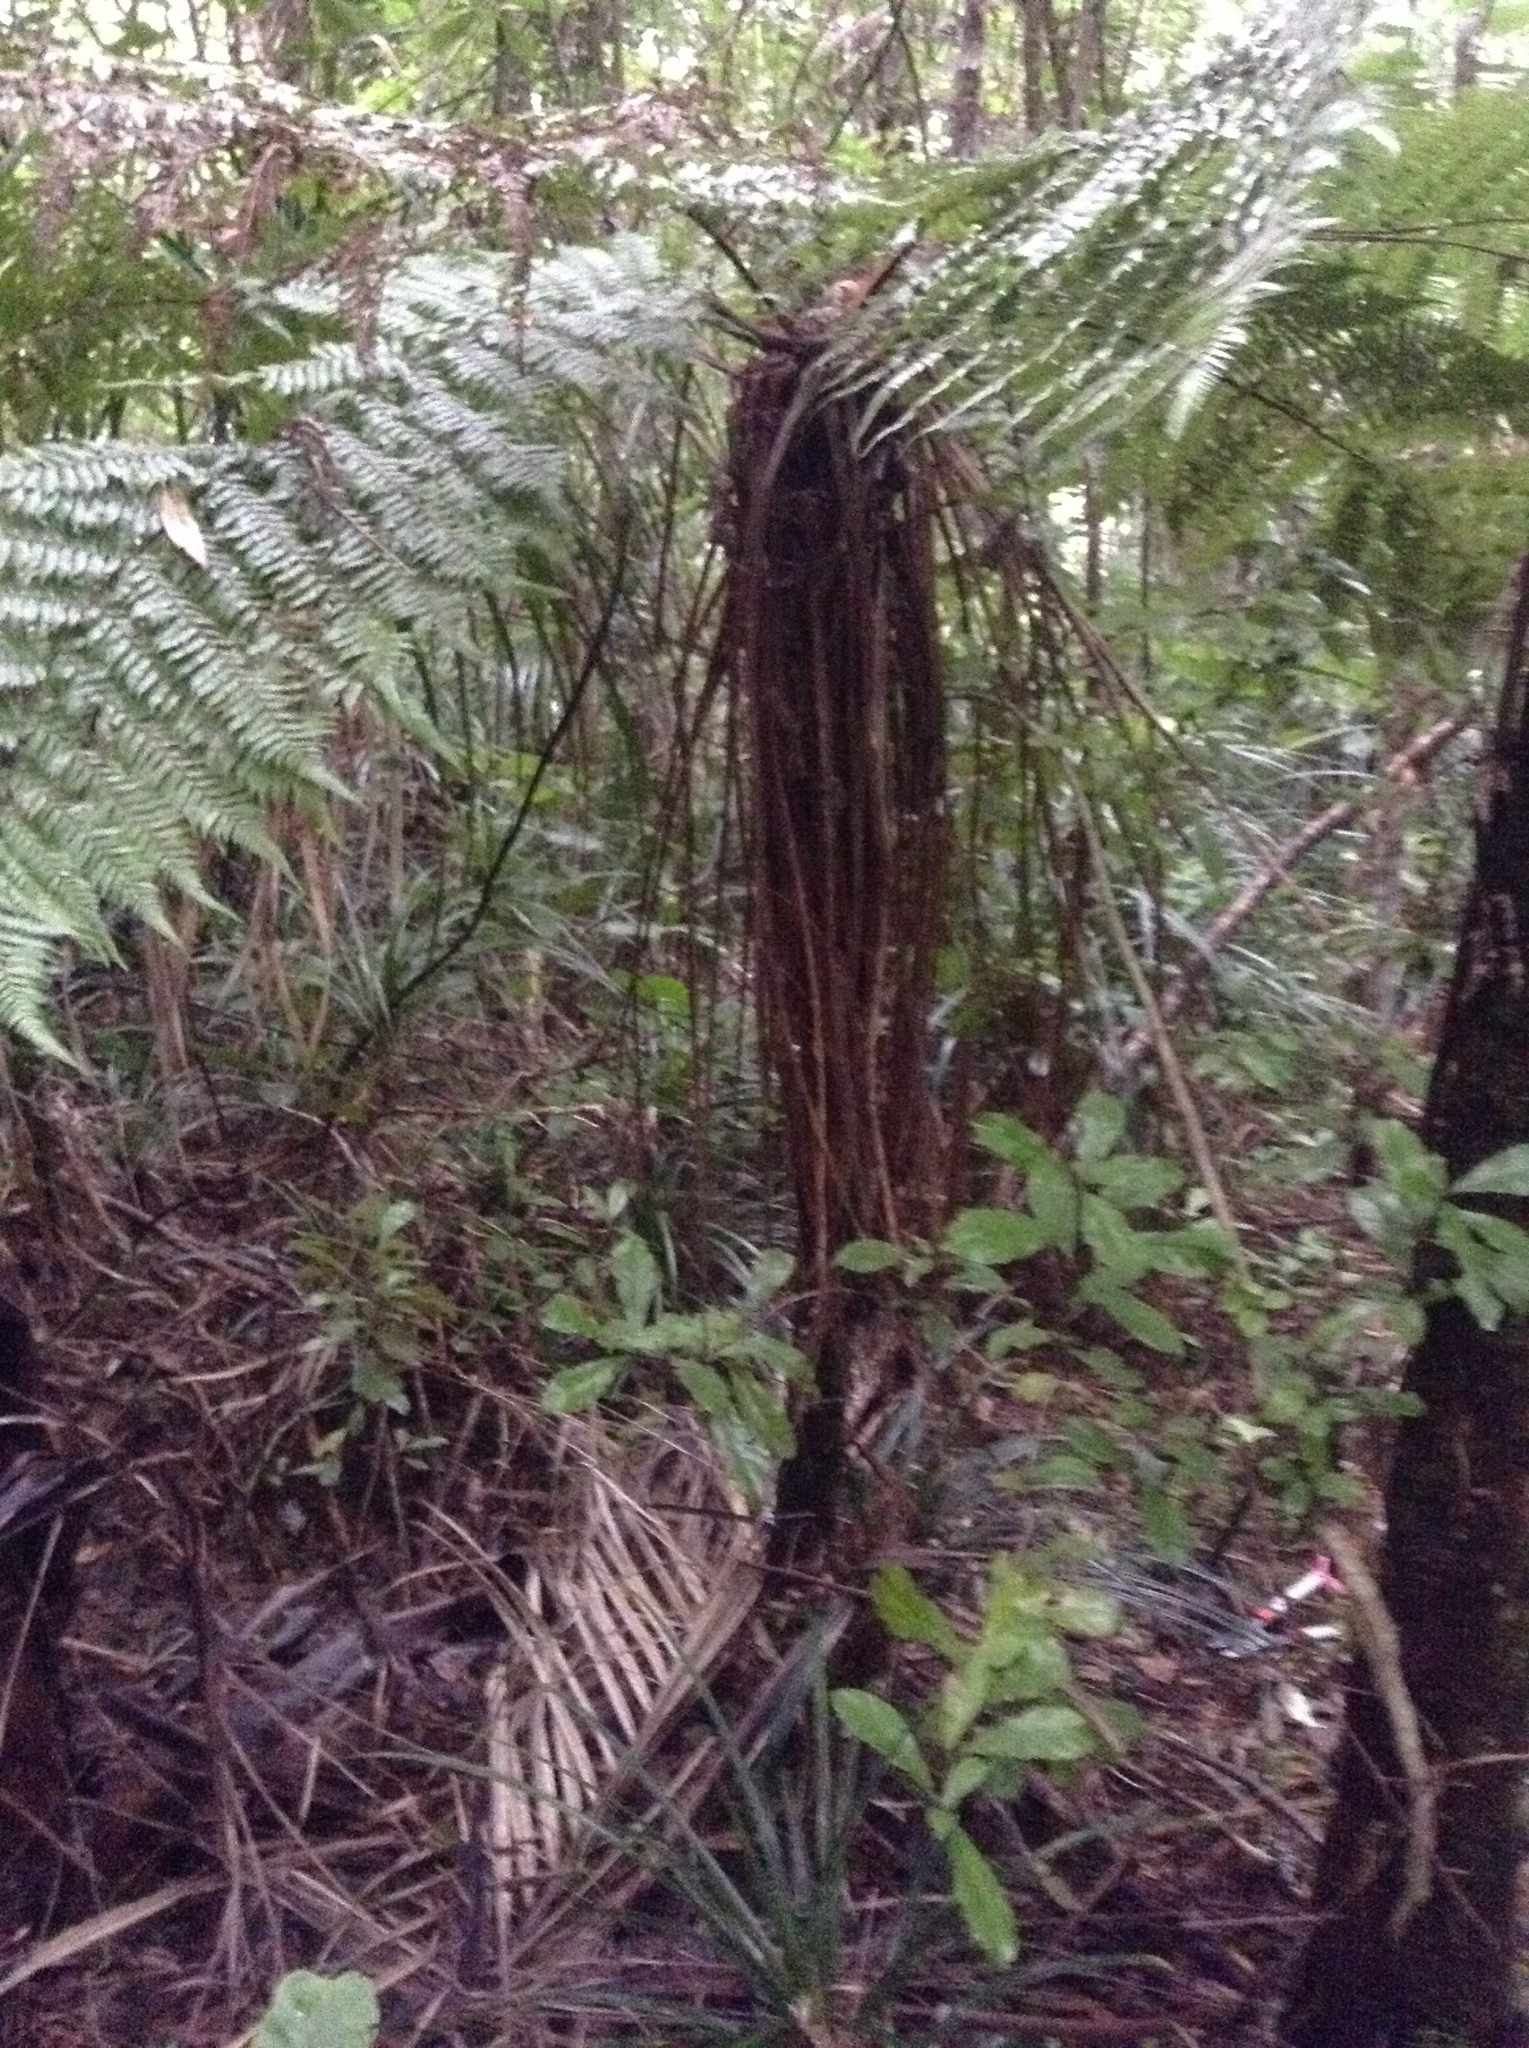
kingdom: Plantae
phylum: Tracheophyta
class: Polypodiopsida
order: Cyatheales
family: Cyatheaceae
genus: Alsophila
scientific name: Alsophila smithii
